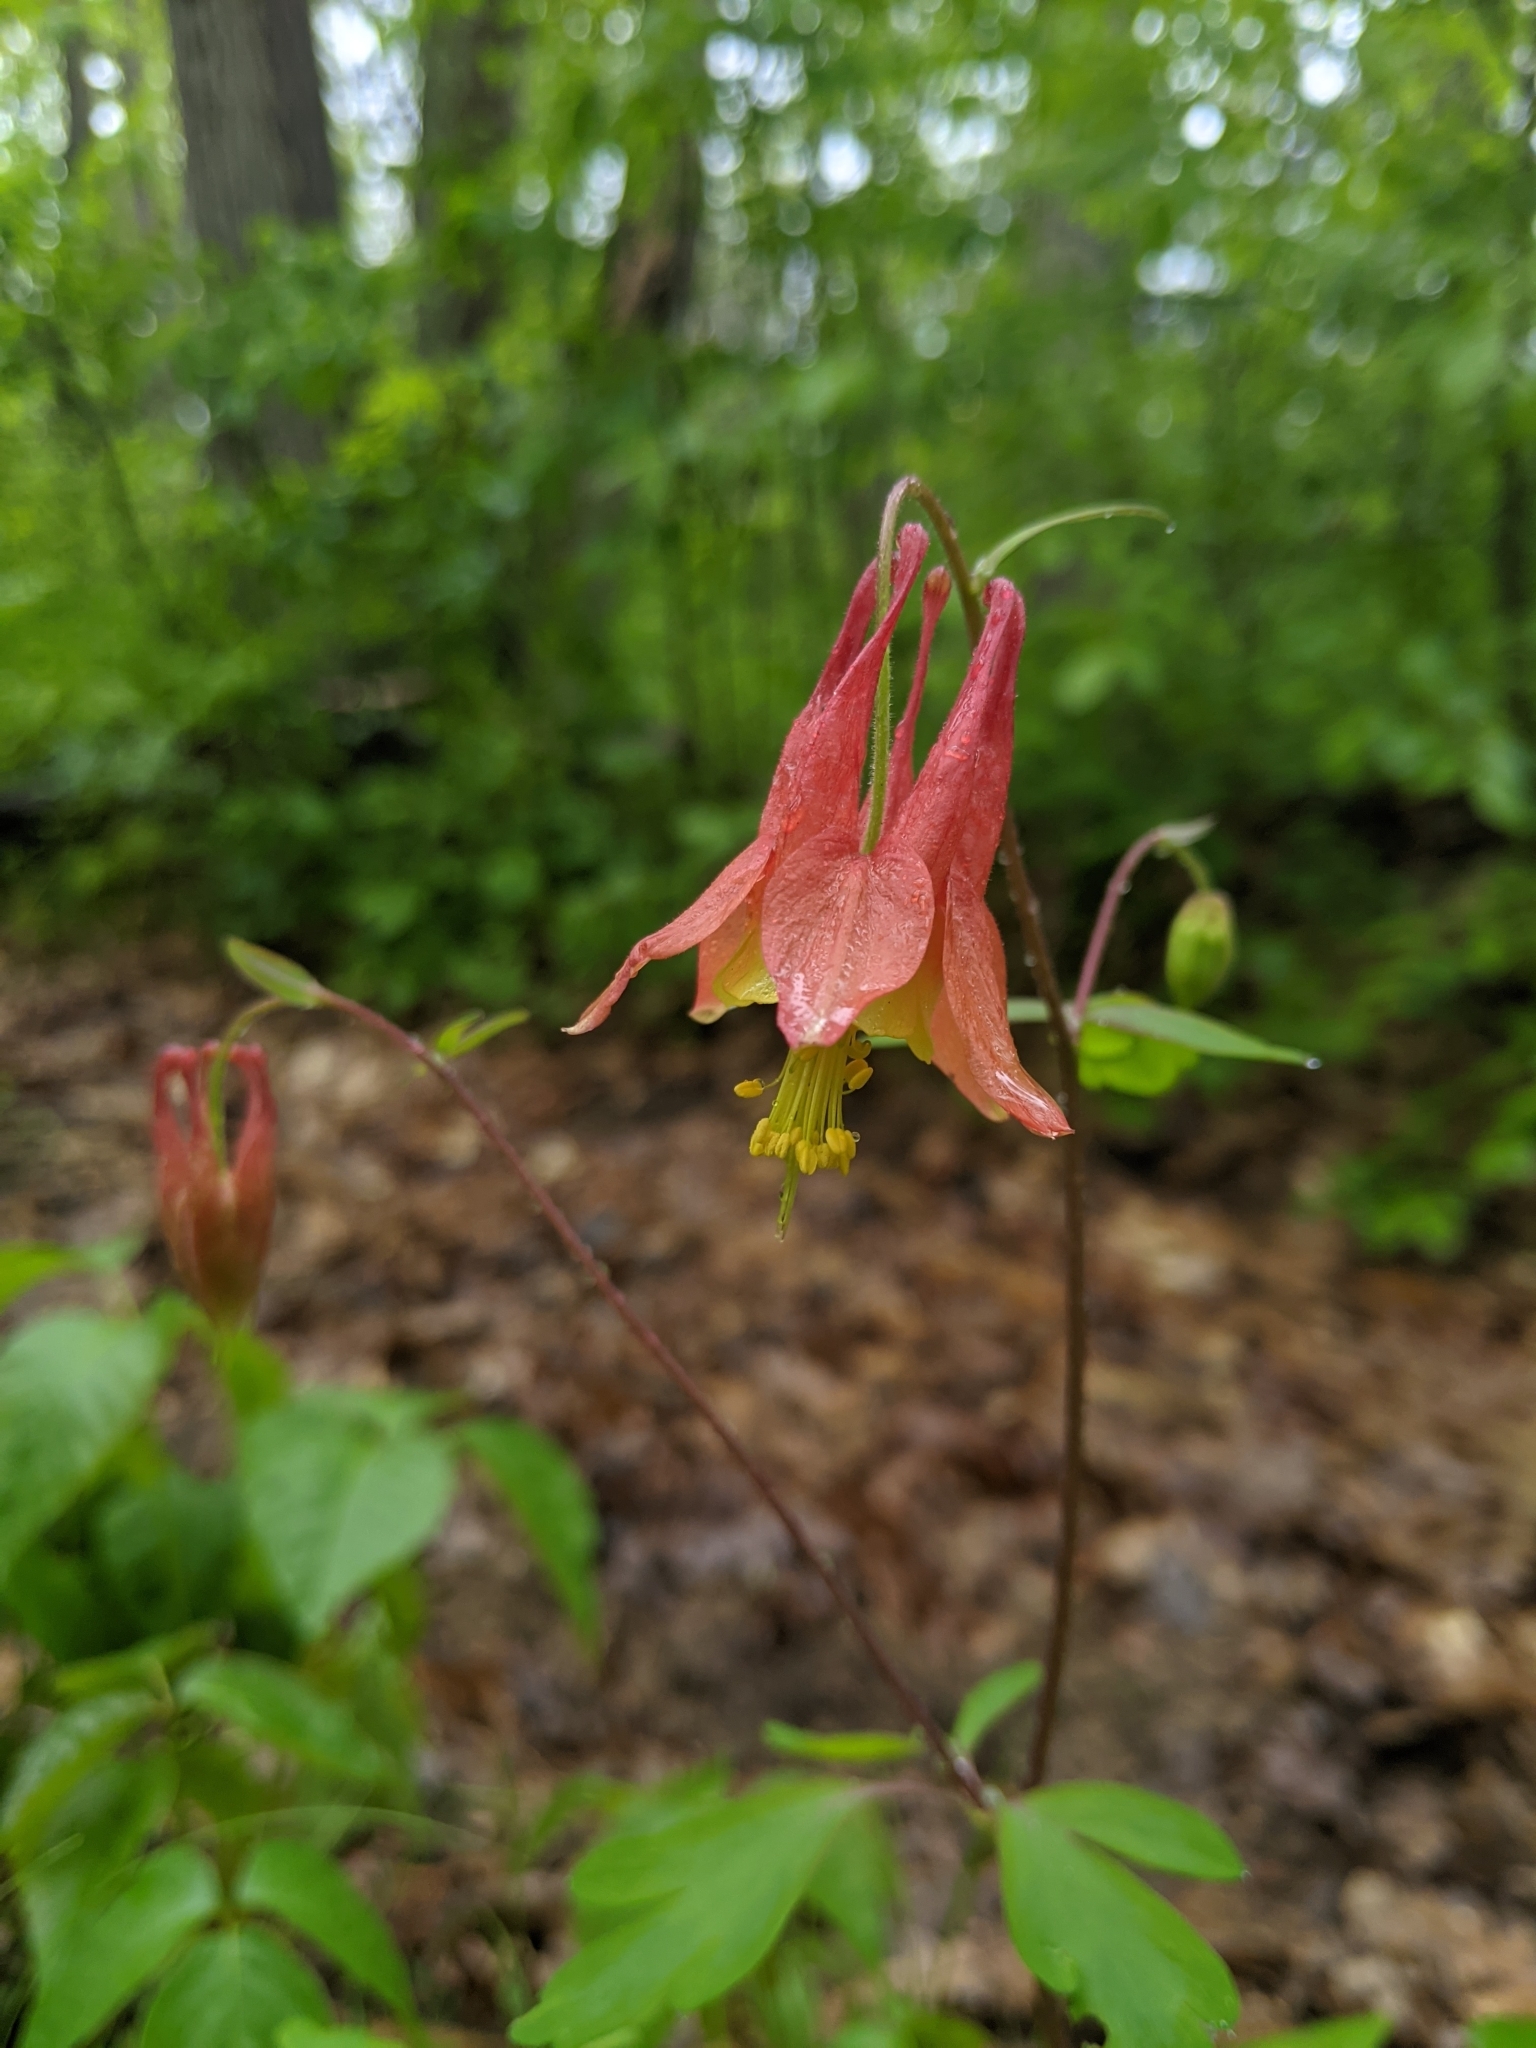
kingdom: Plantae
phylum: Tracheophyta
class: Magnoliopsida
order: Ranunculales
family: Ranunculaceae
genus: Aquilegia
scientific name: Aquilegia canadensis
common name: American columbine
